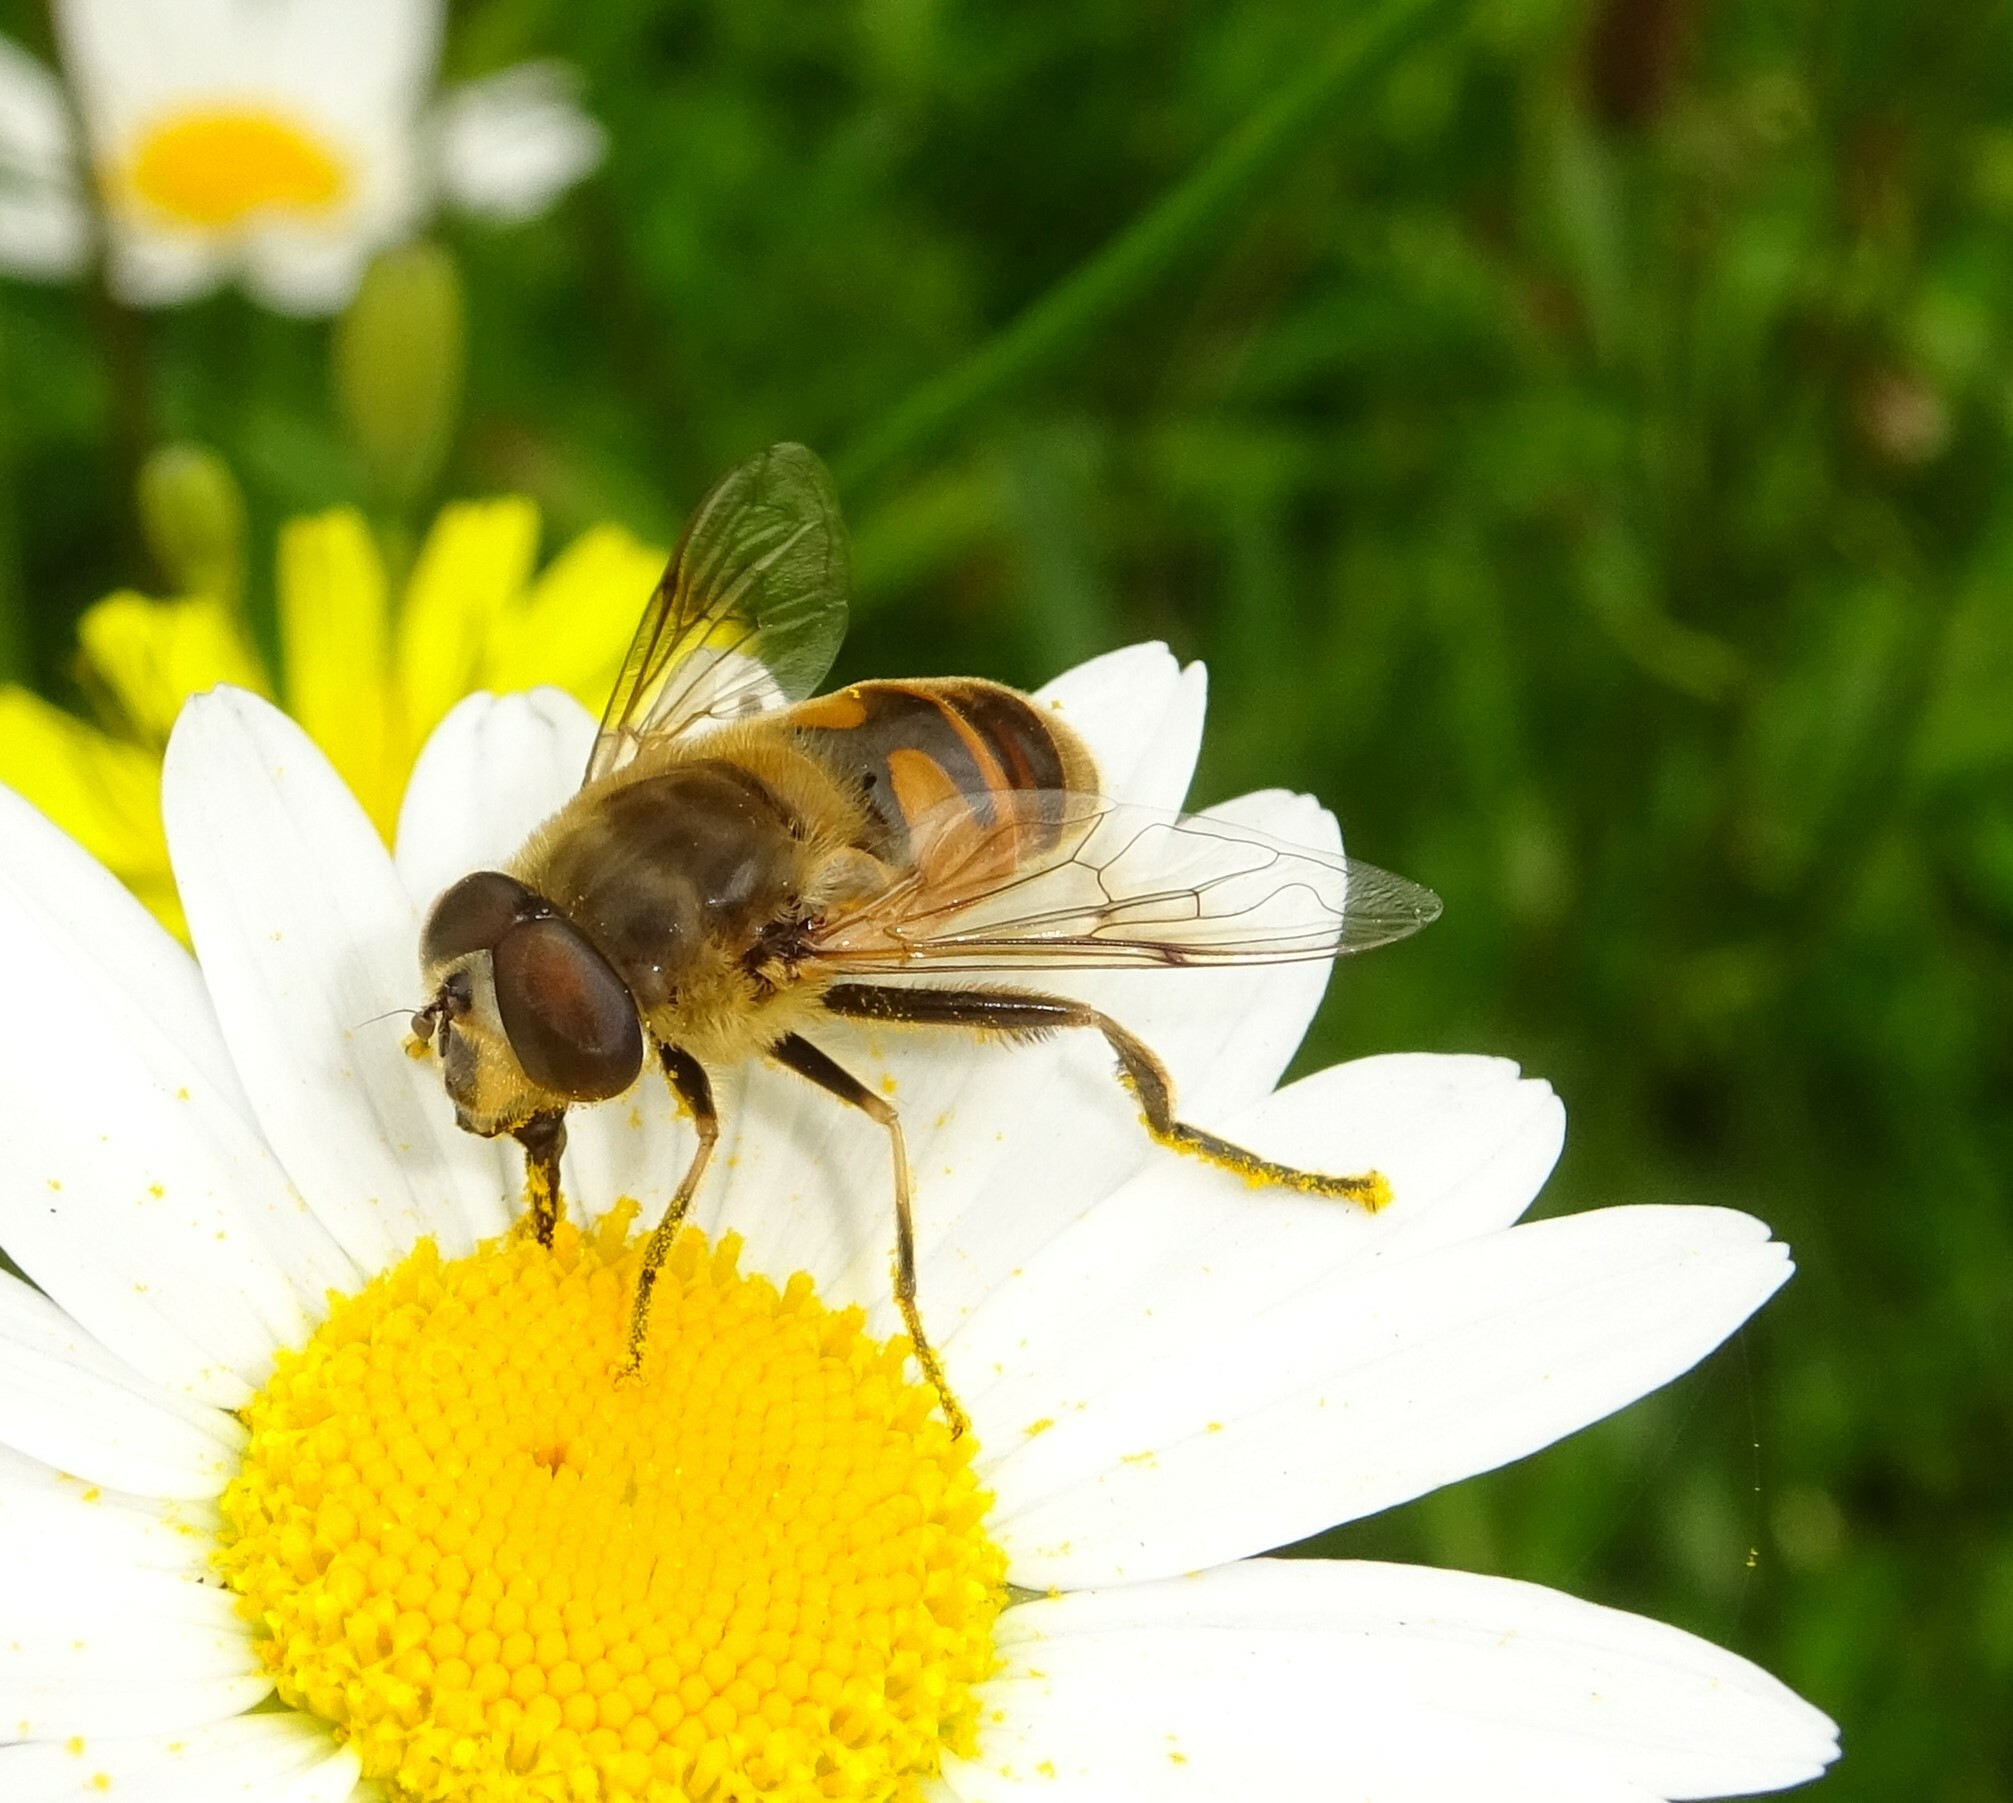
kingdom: Animalia
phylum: Arthropoda
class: Insecta
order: Diptera
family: Syrphidae
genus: Eristalis
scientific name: Eristalis tenax
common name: Drone fly
